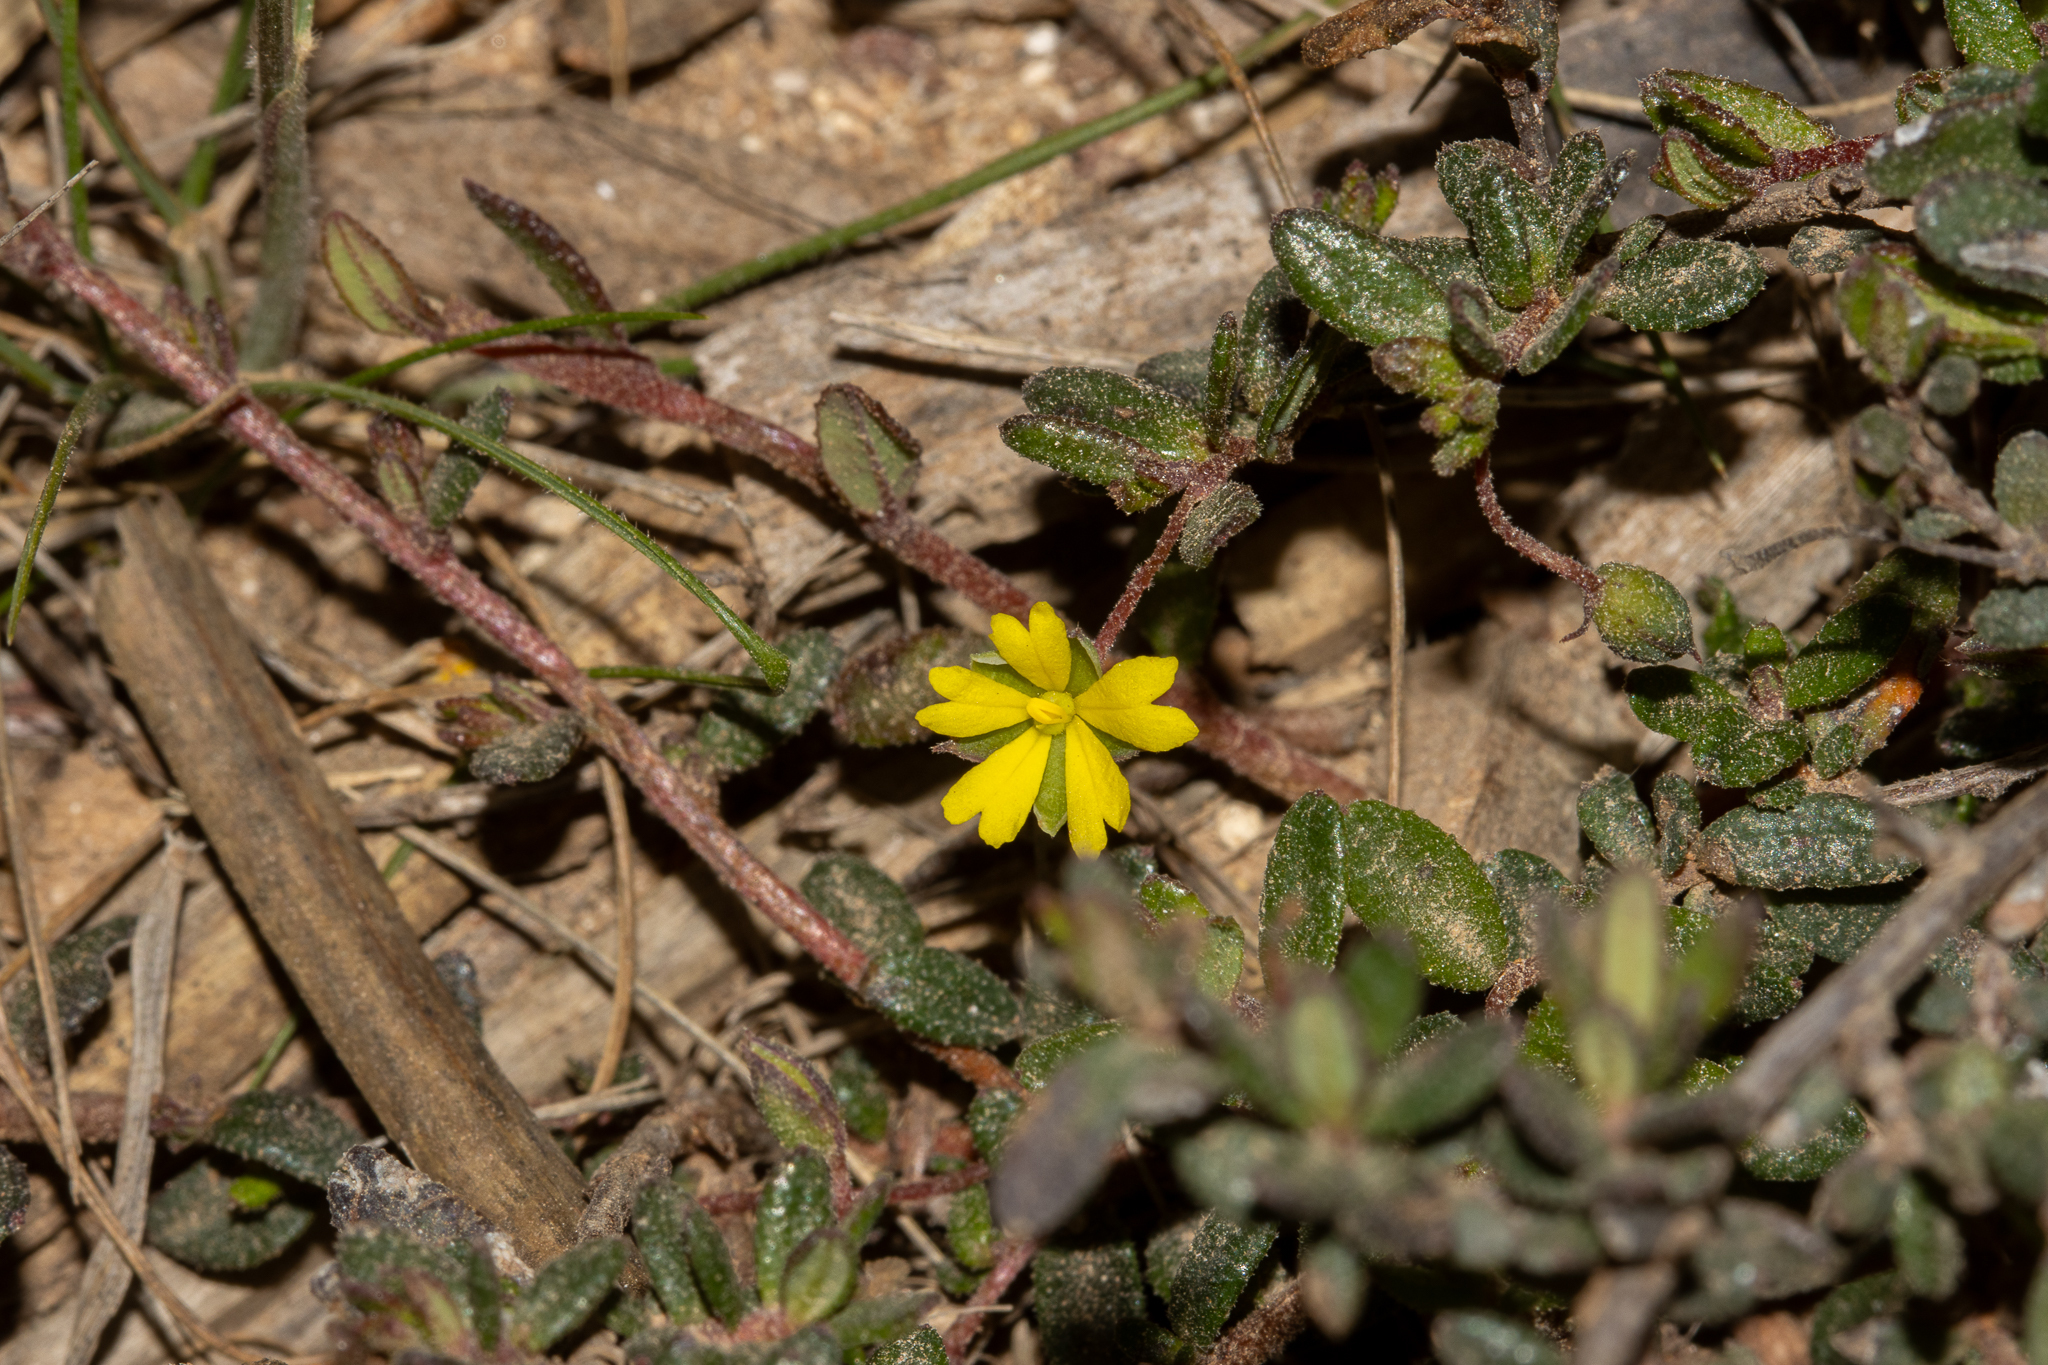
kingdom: Plantae
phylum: Tracheophyta
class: Magnoliopsida
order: Dilleniales
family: Dilleniaceae
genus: Hibbertia
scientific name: Hibbertia
